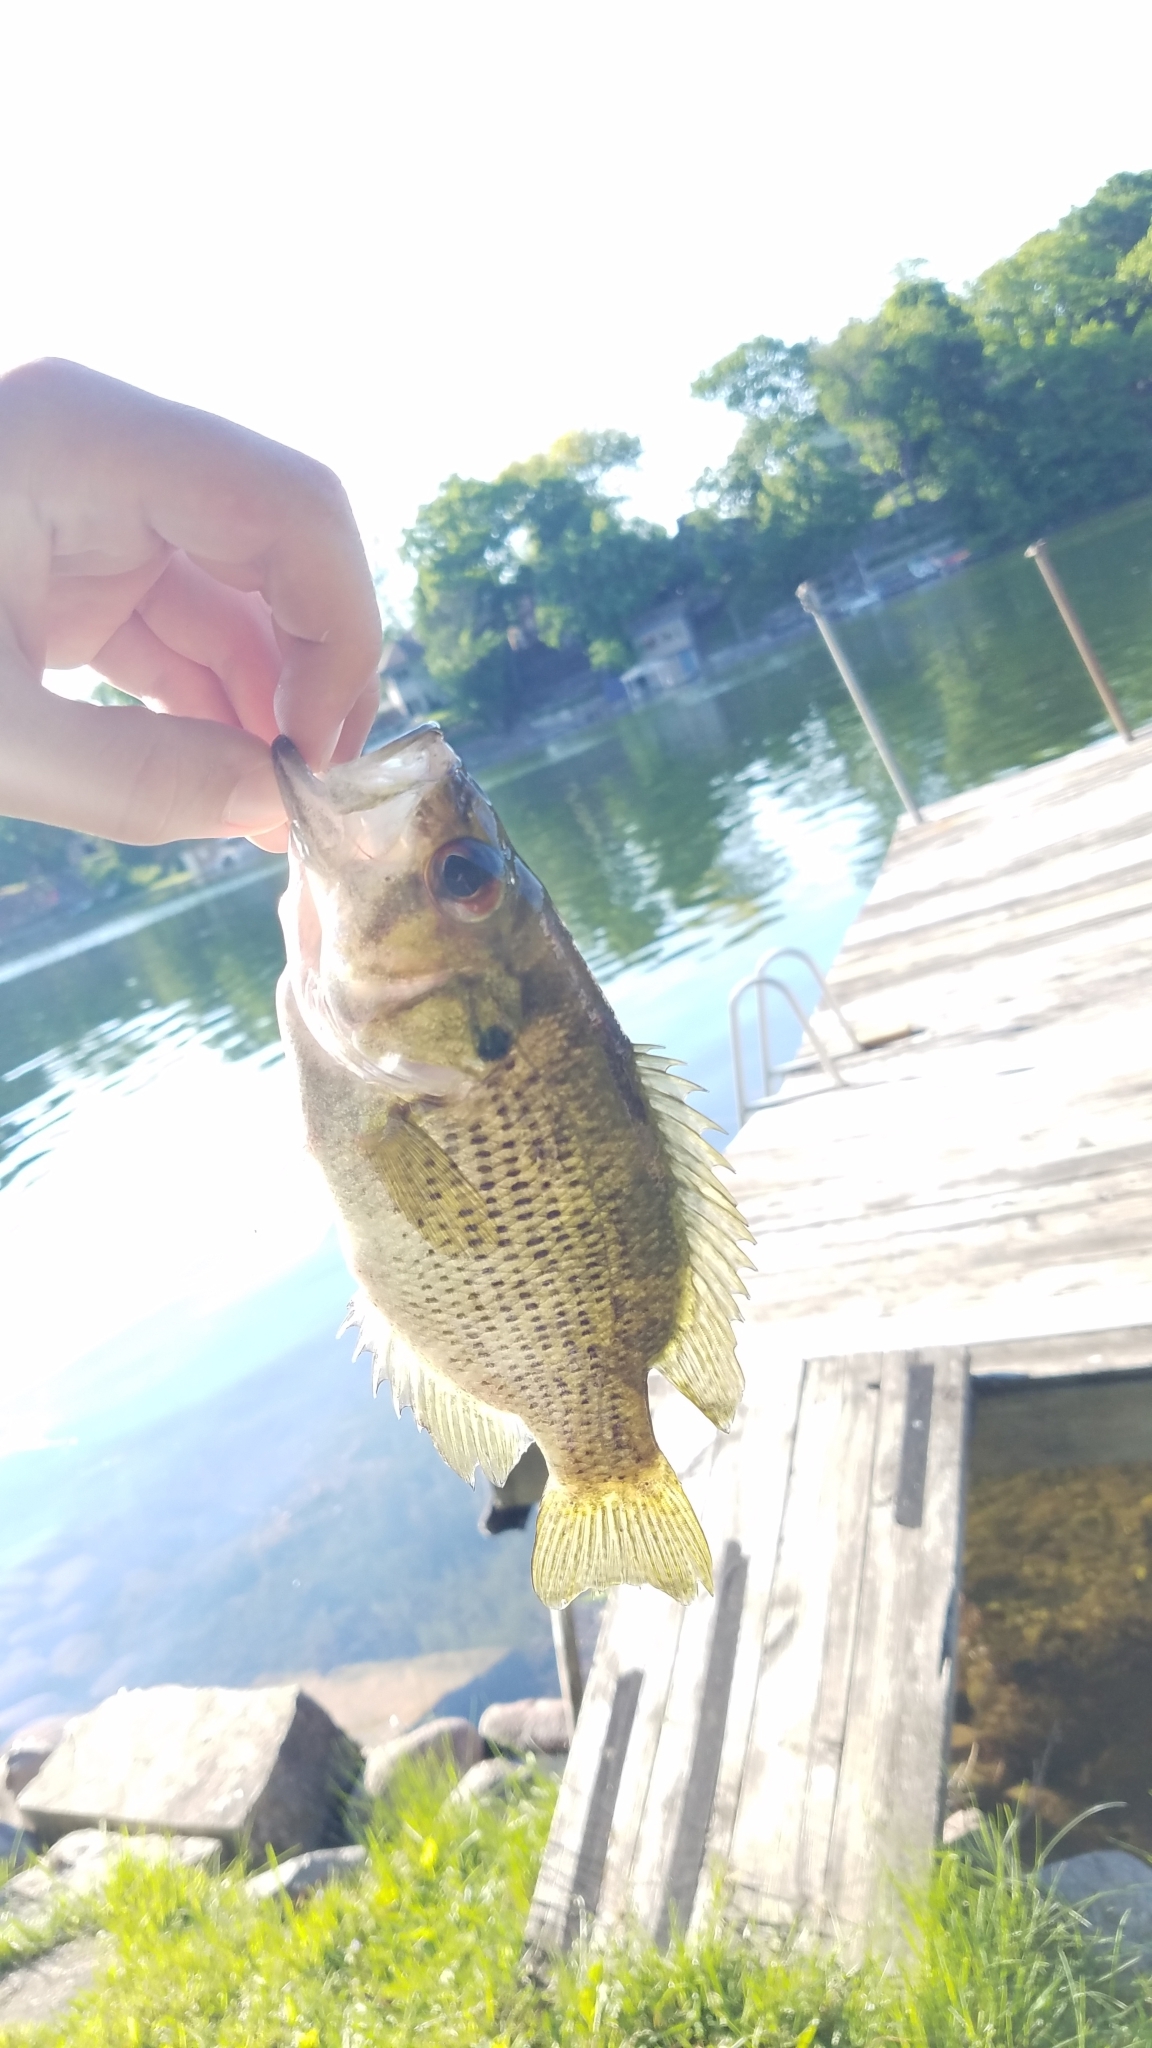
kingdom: Animalia
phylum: Chordata
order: Perciformes
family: Centrarchidae
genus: Ambloplites
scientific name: Ambloplites rupestris
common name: Rock bass
